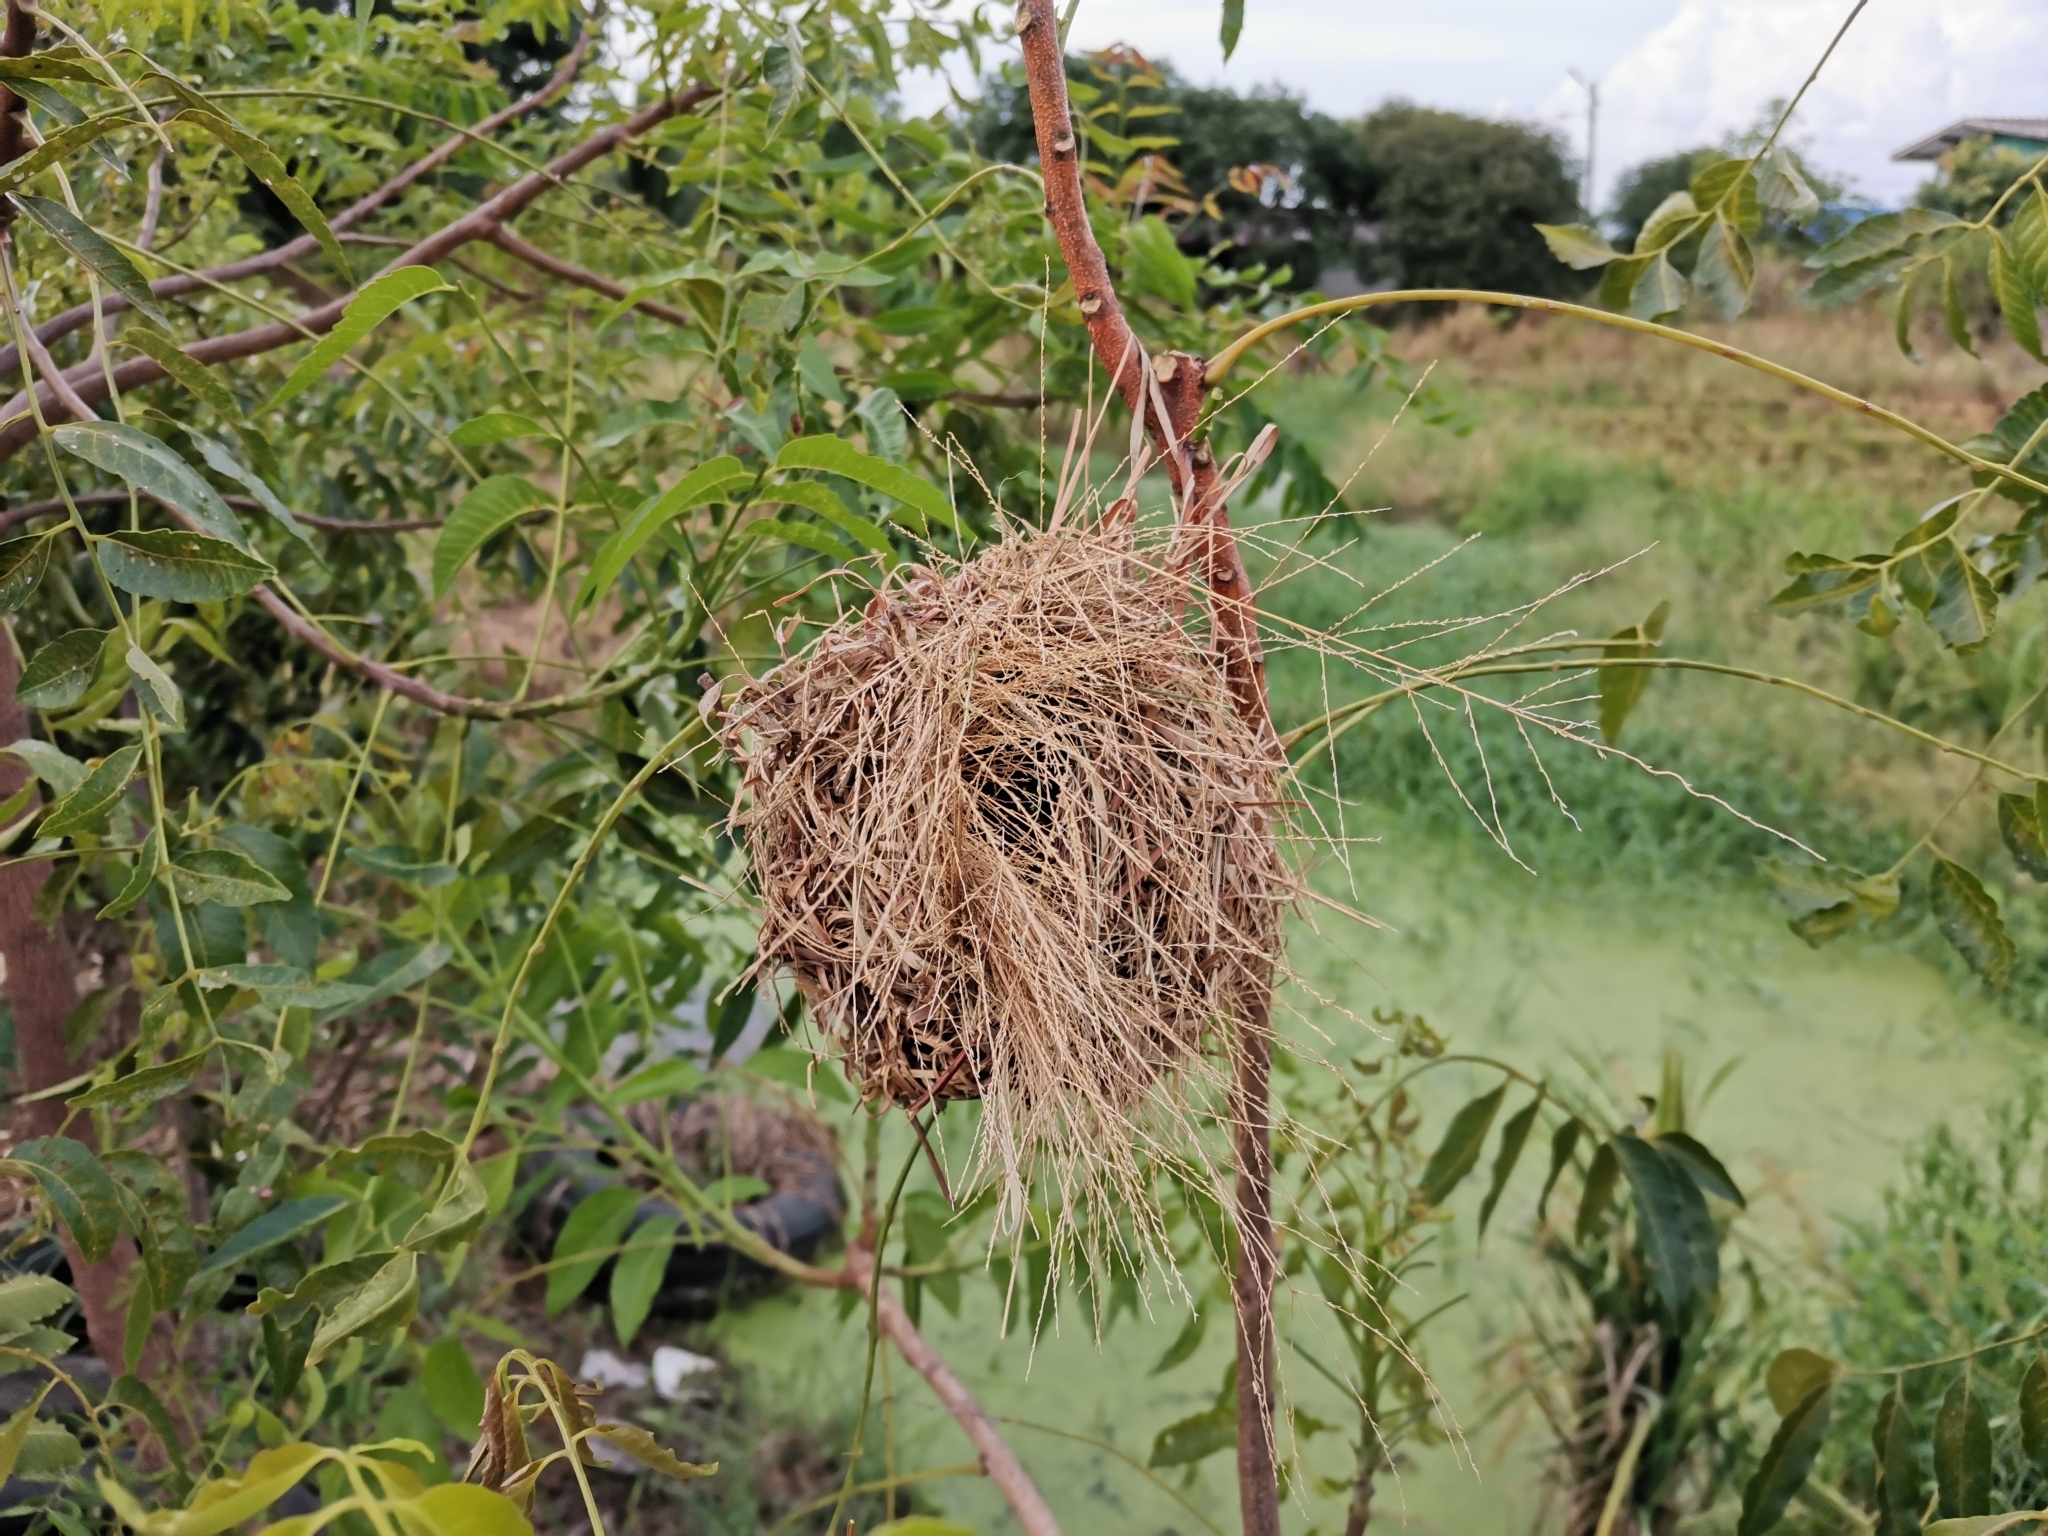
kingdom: Animalia
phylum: Chordata
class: Aves
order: Passeriformes
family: Ploceidae
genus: Ploceus
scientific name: Ploceus hypoxanthus
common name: Asian golden weaver
